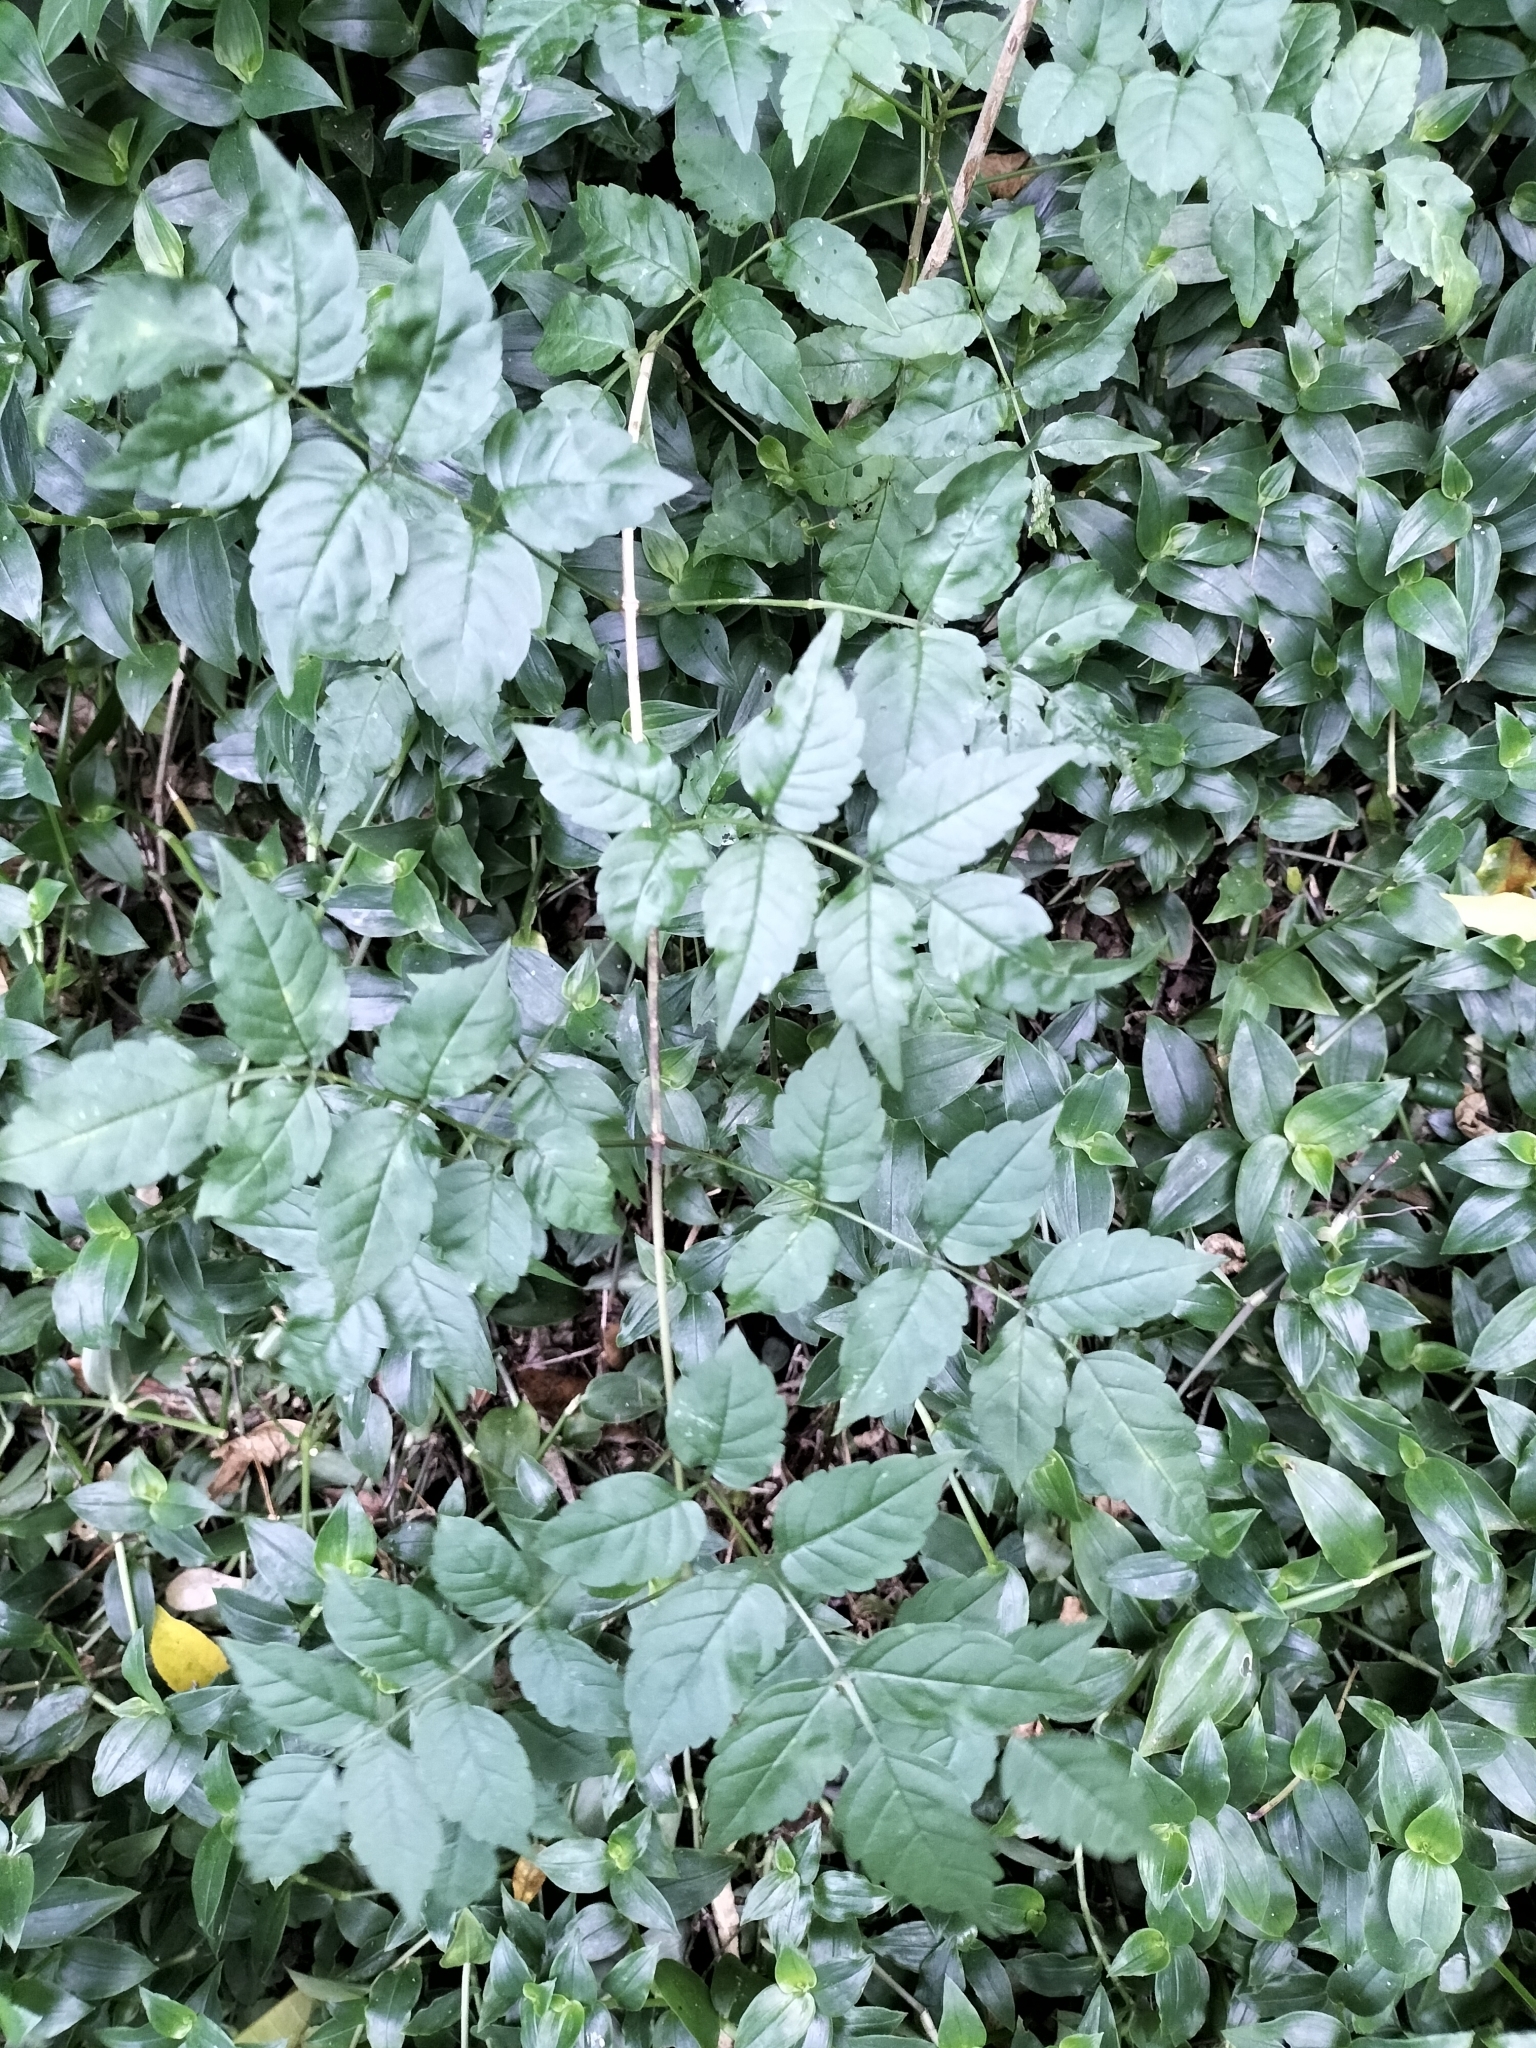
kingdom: Plantae
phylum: Tracheophyta
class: Magnoliopsida
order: Lamiales
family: Bignoniaceae
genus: Podranea
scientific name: Podranea ricasoliana
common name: Zimbabwe creeper
